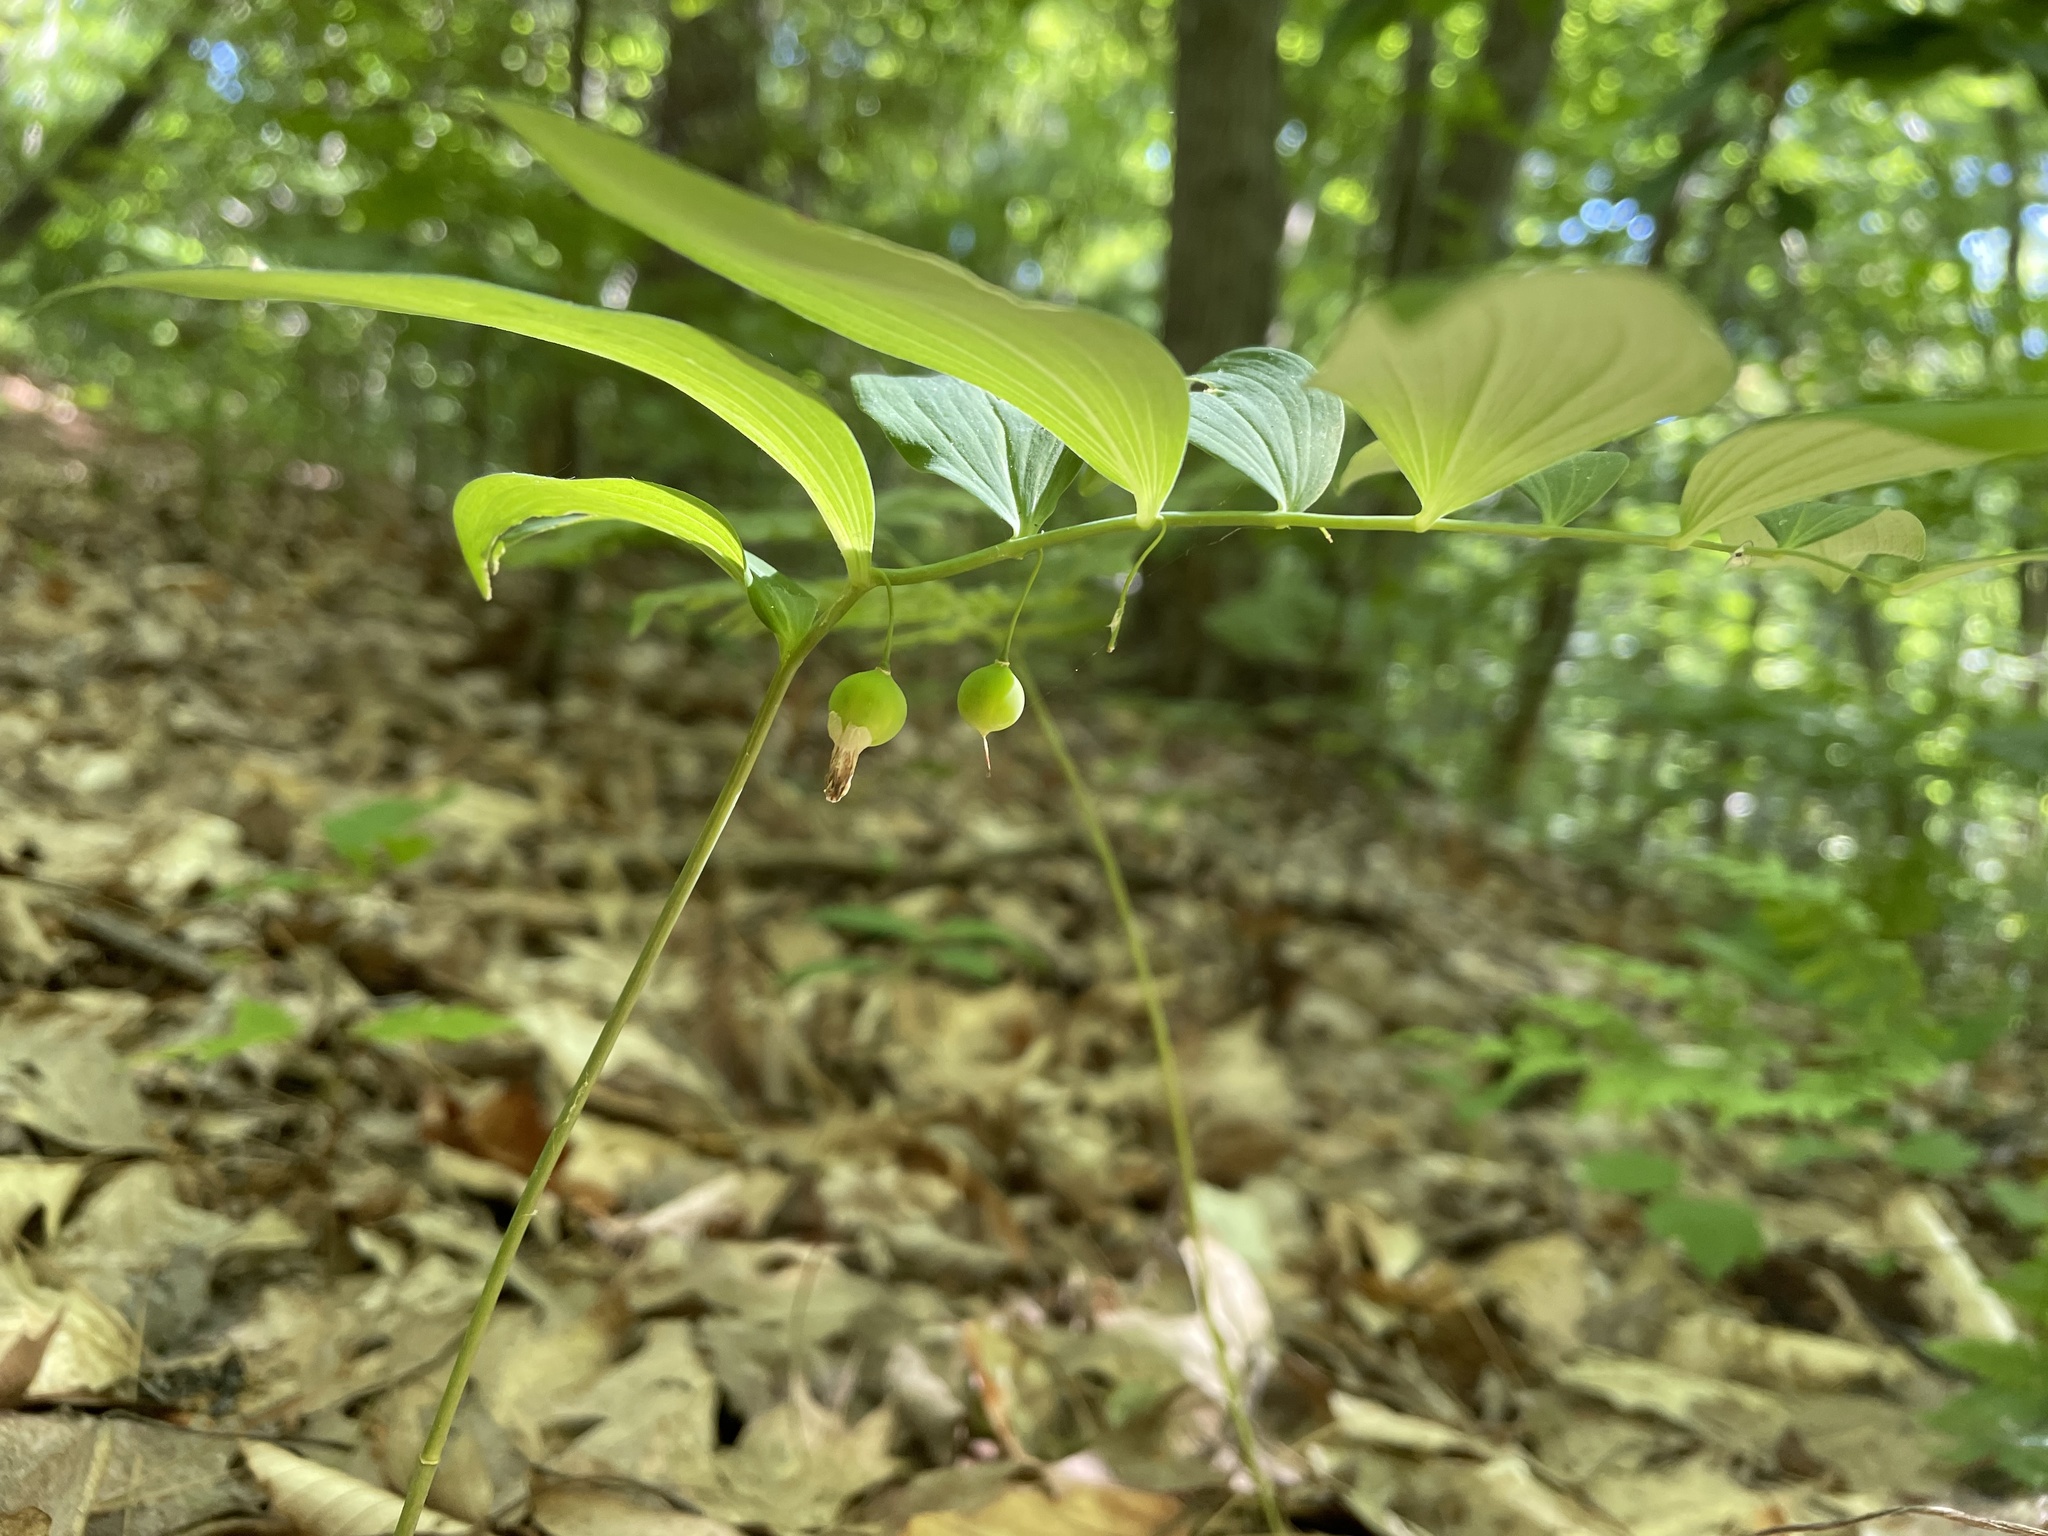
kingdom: Plantae
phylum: Tracheophyta
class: Liliopsida
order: Asparagales
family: Asparagaceae
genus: Polygonatum
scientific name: Polygonatum pubescens
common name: Downy solomon's seal
